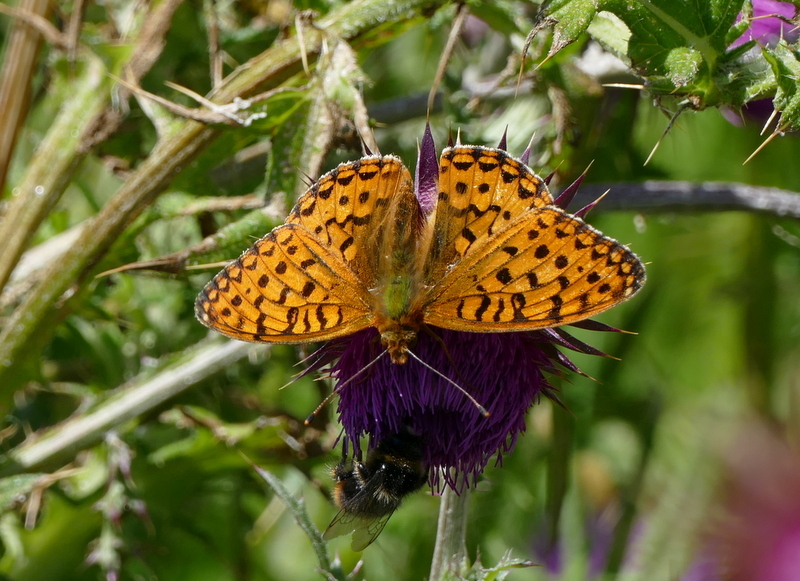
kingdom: Animalia
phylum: Arthropoda
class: Insecta
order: Lepidoptera
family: Nymphalidae
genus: Speyeria
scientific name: Speyeria aglaja
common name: Dark green fritillary
